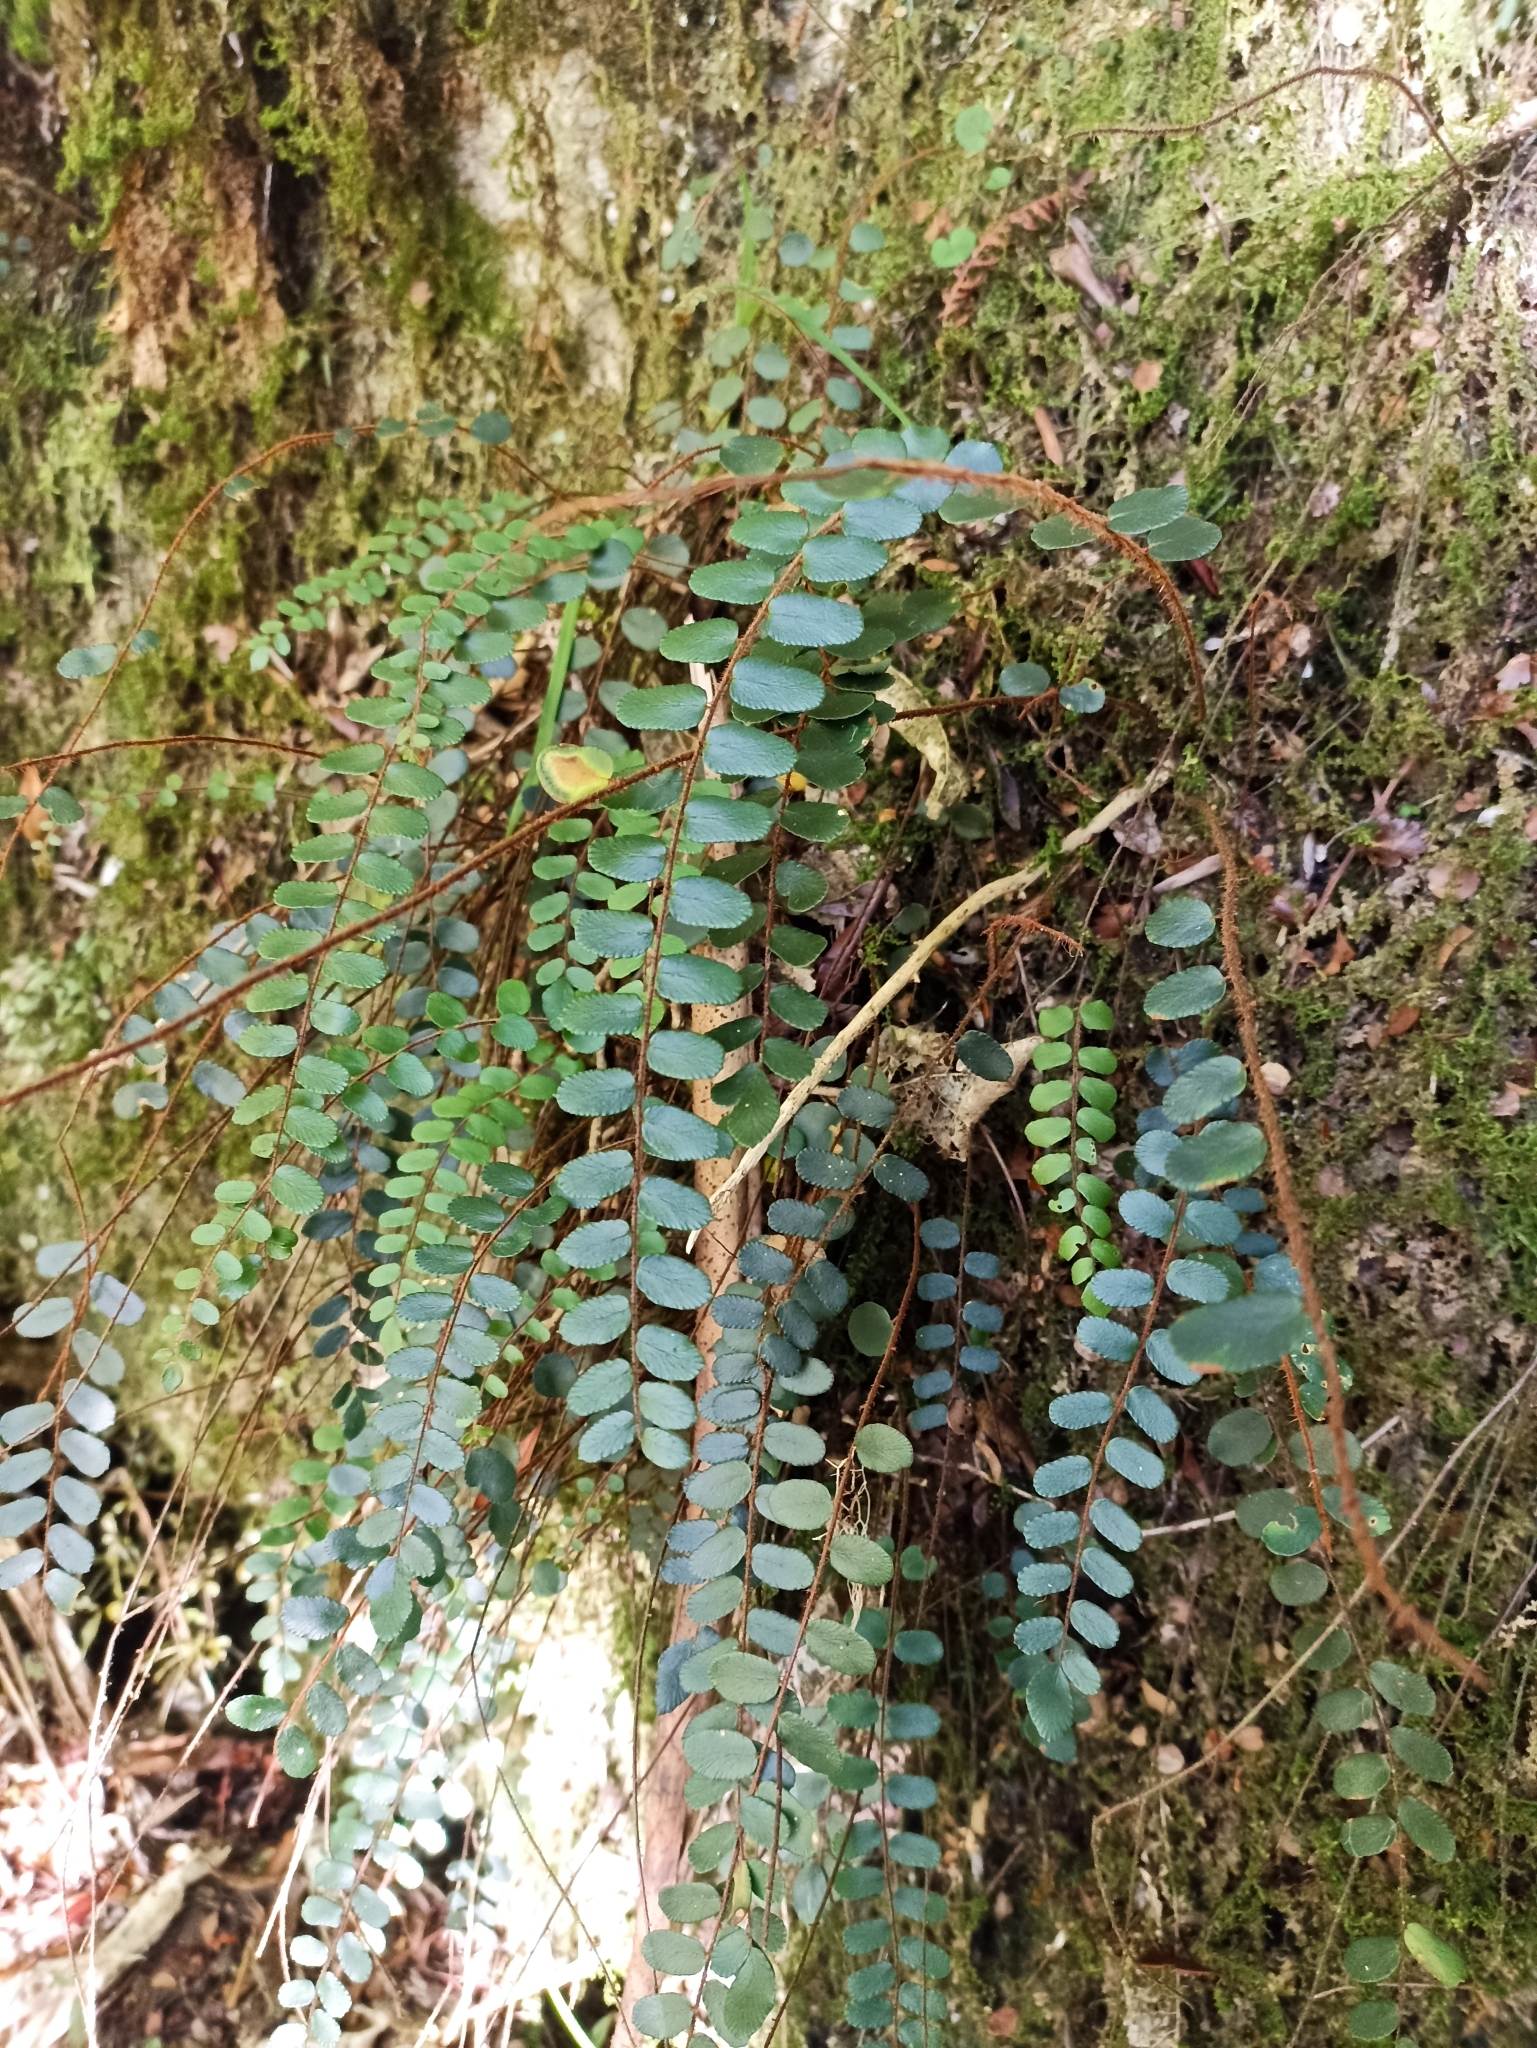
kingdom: Plantae
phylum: Tracheophyta
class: Polypodiopsida
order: Polypodiales
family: Pteridaceae
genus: Pellaea
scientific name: Pellaea rotundifolia
